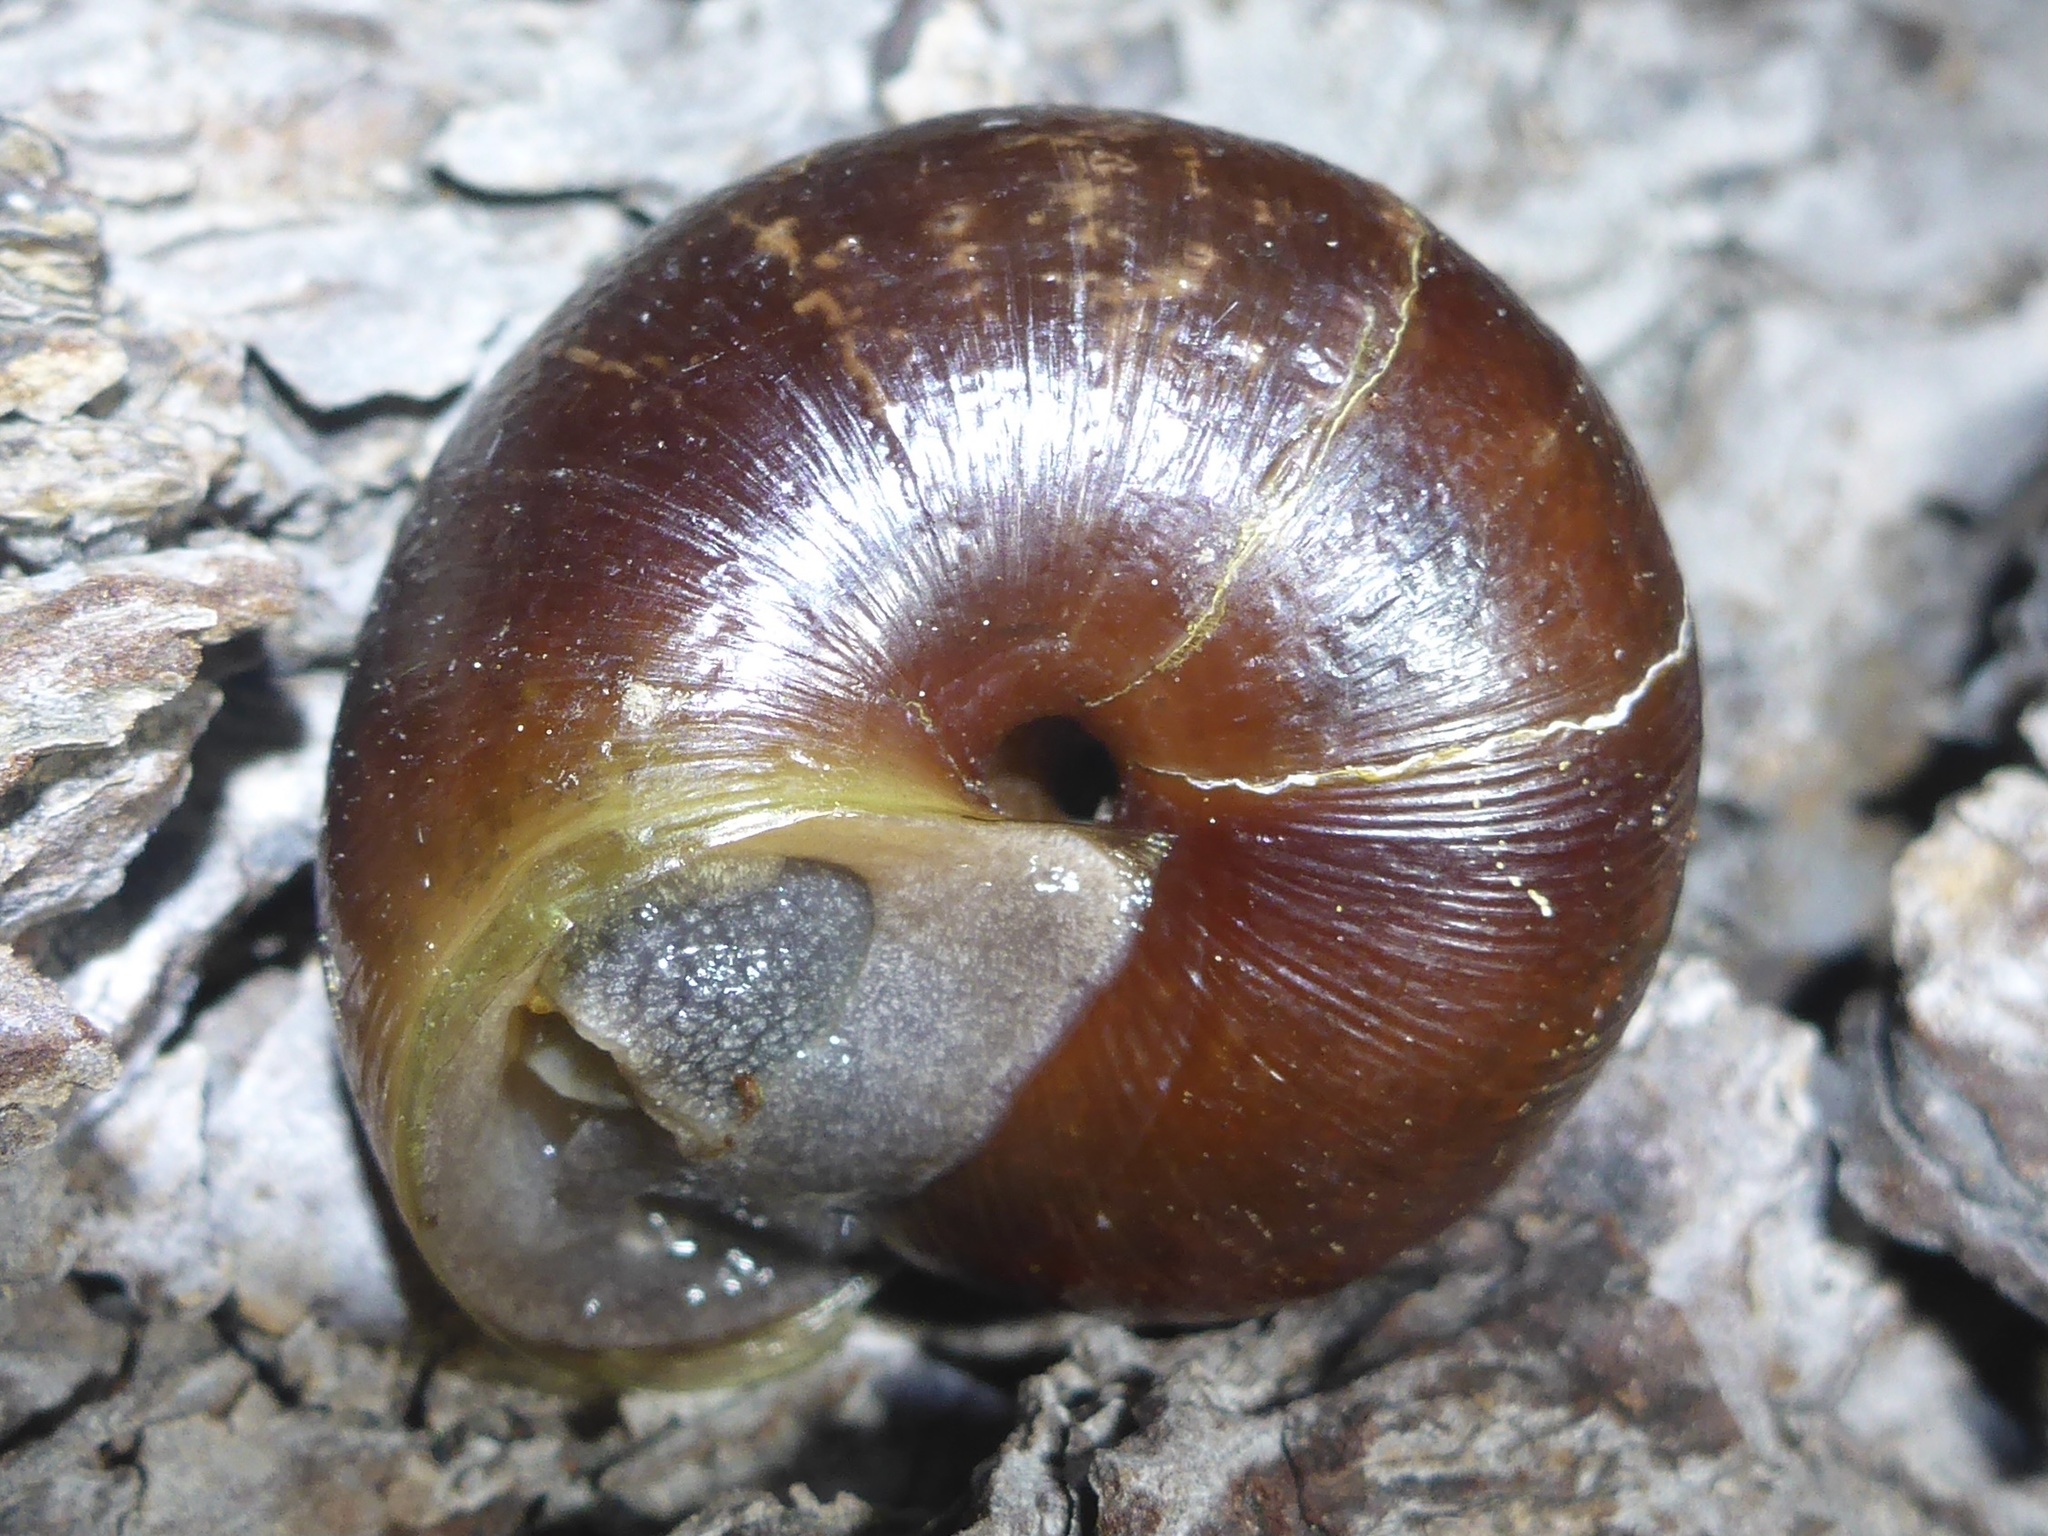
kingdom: Animalia
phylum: Mollusca
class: Gastropoda
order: Stylommatophora
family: Xanthonychidae
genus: Helminthoglypta
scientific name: Helminthoglypta arrosa
